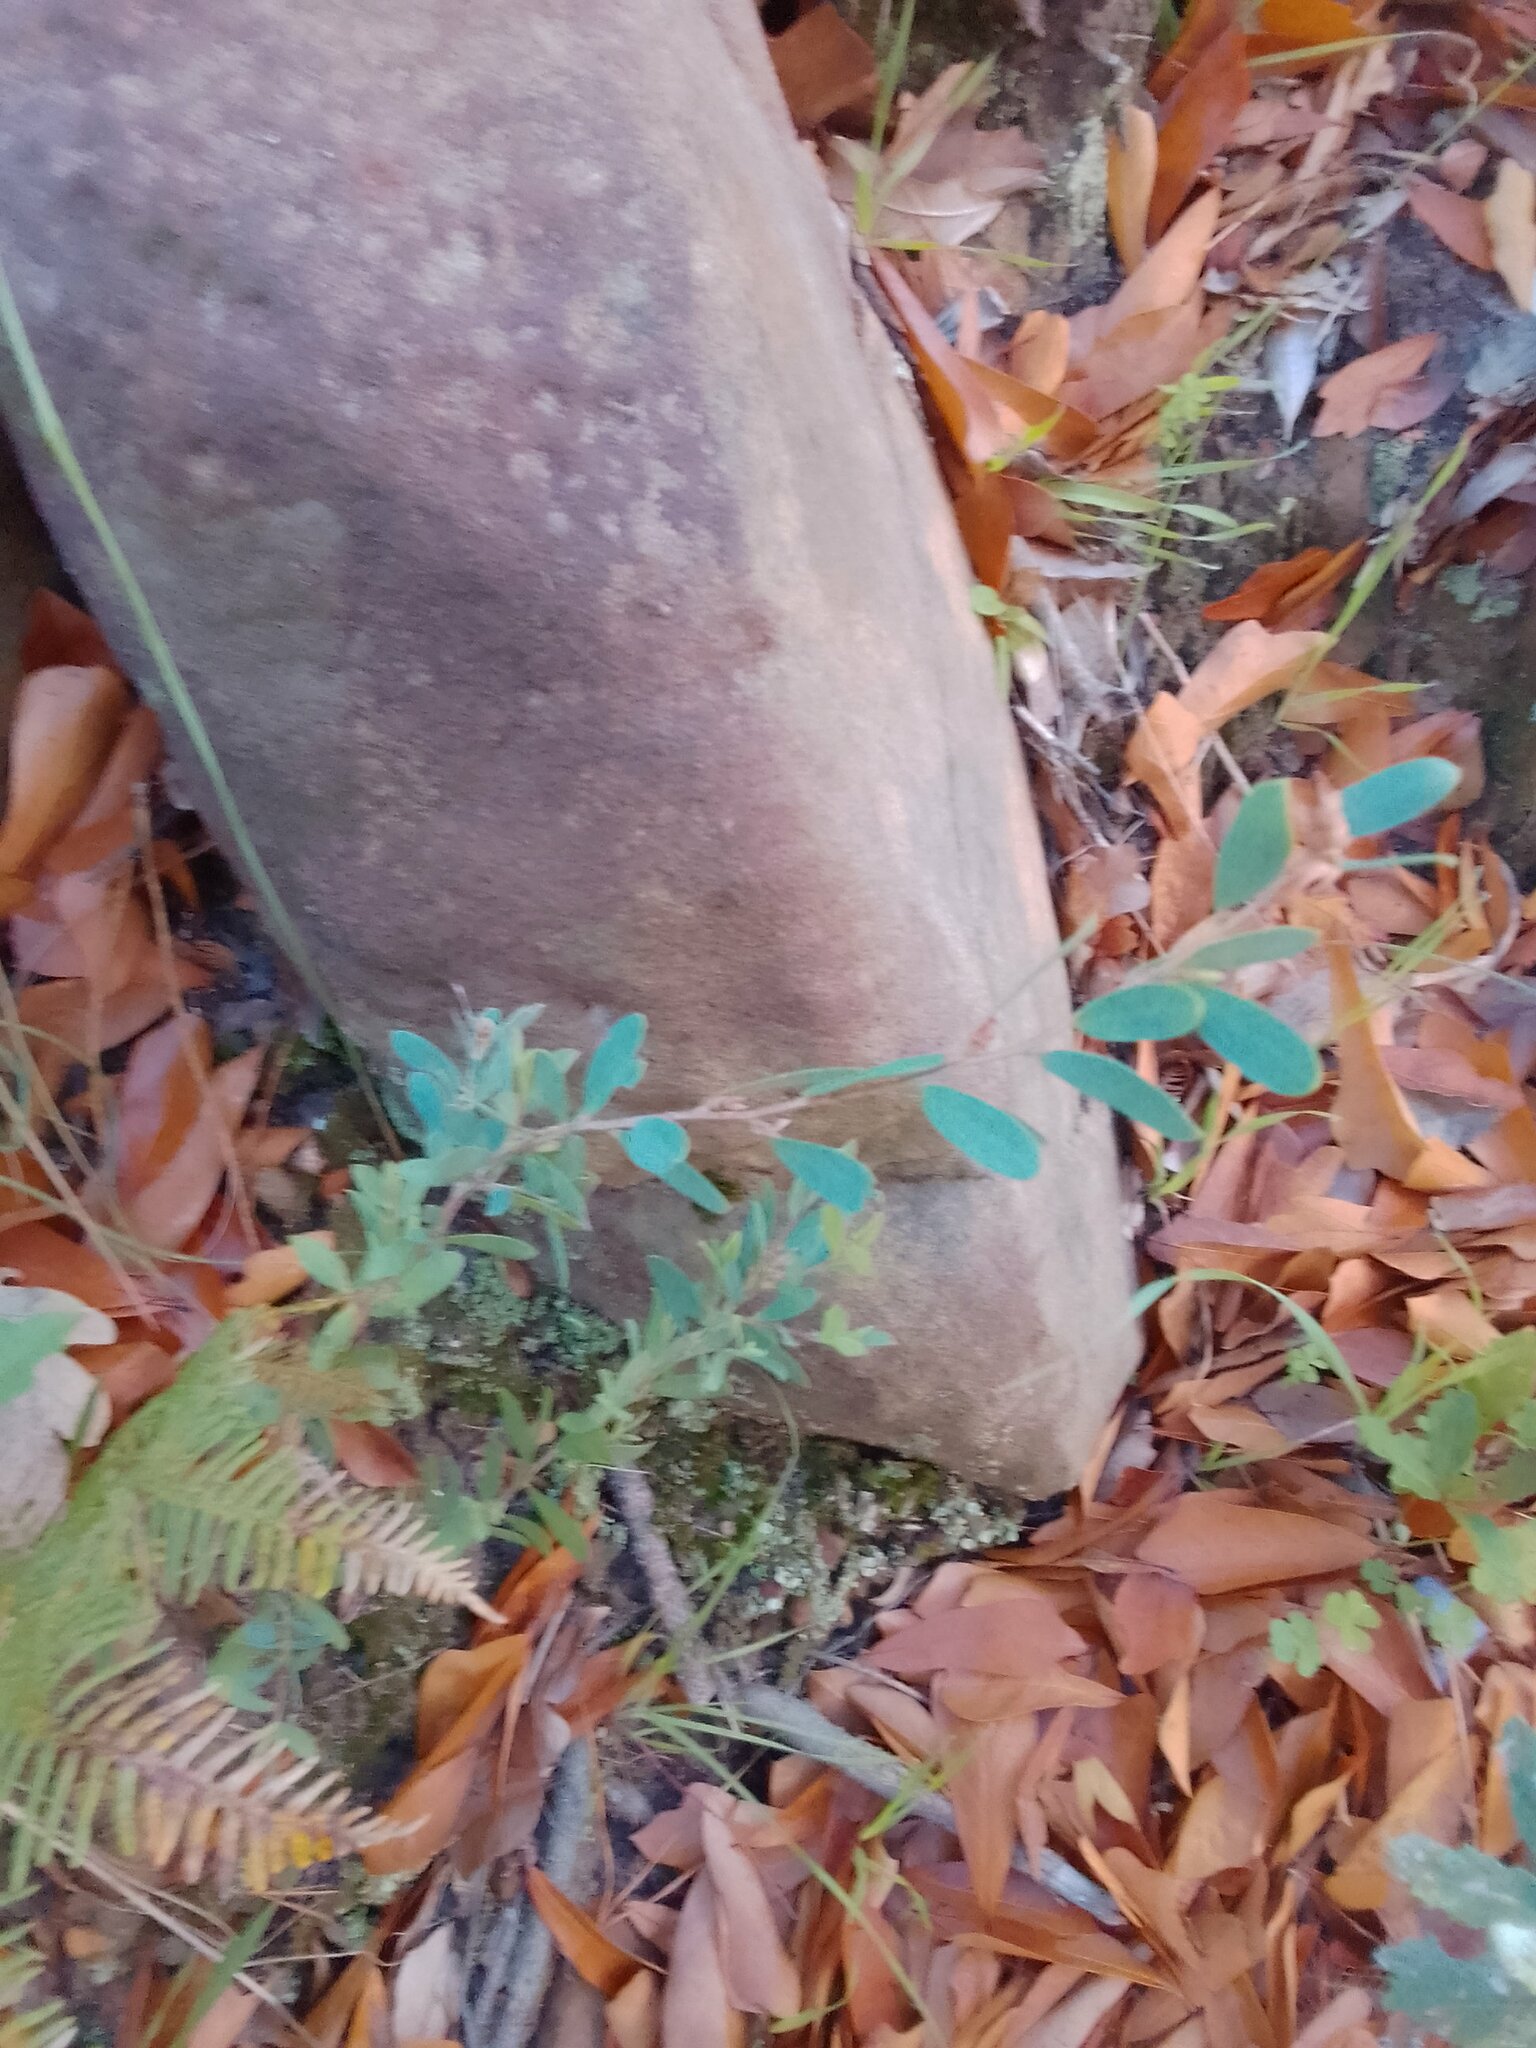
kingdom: Plantae
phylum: Tracheophyta
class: Magnoliopsida
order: Myrtales
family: Myrtaceae
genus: Leptospermum
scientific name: Leptospermum laevigatum
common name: Australian teatree
